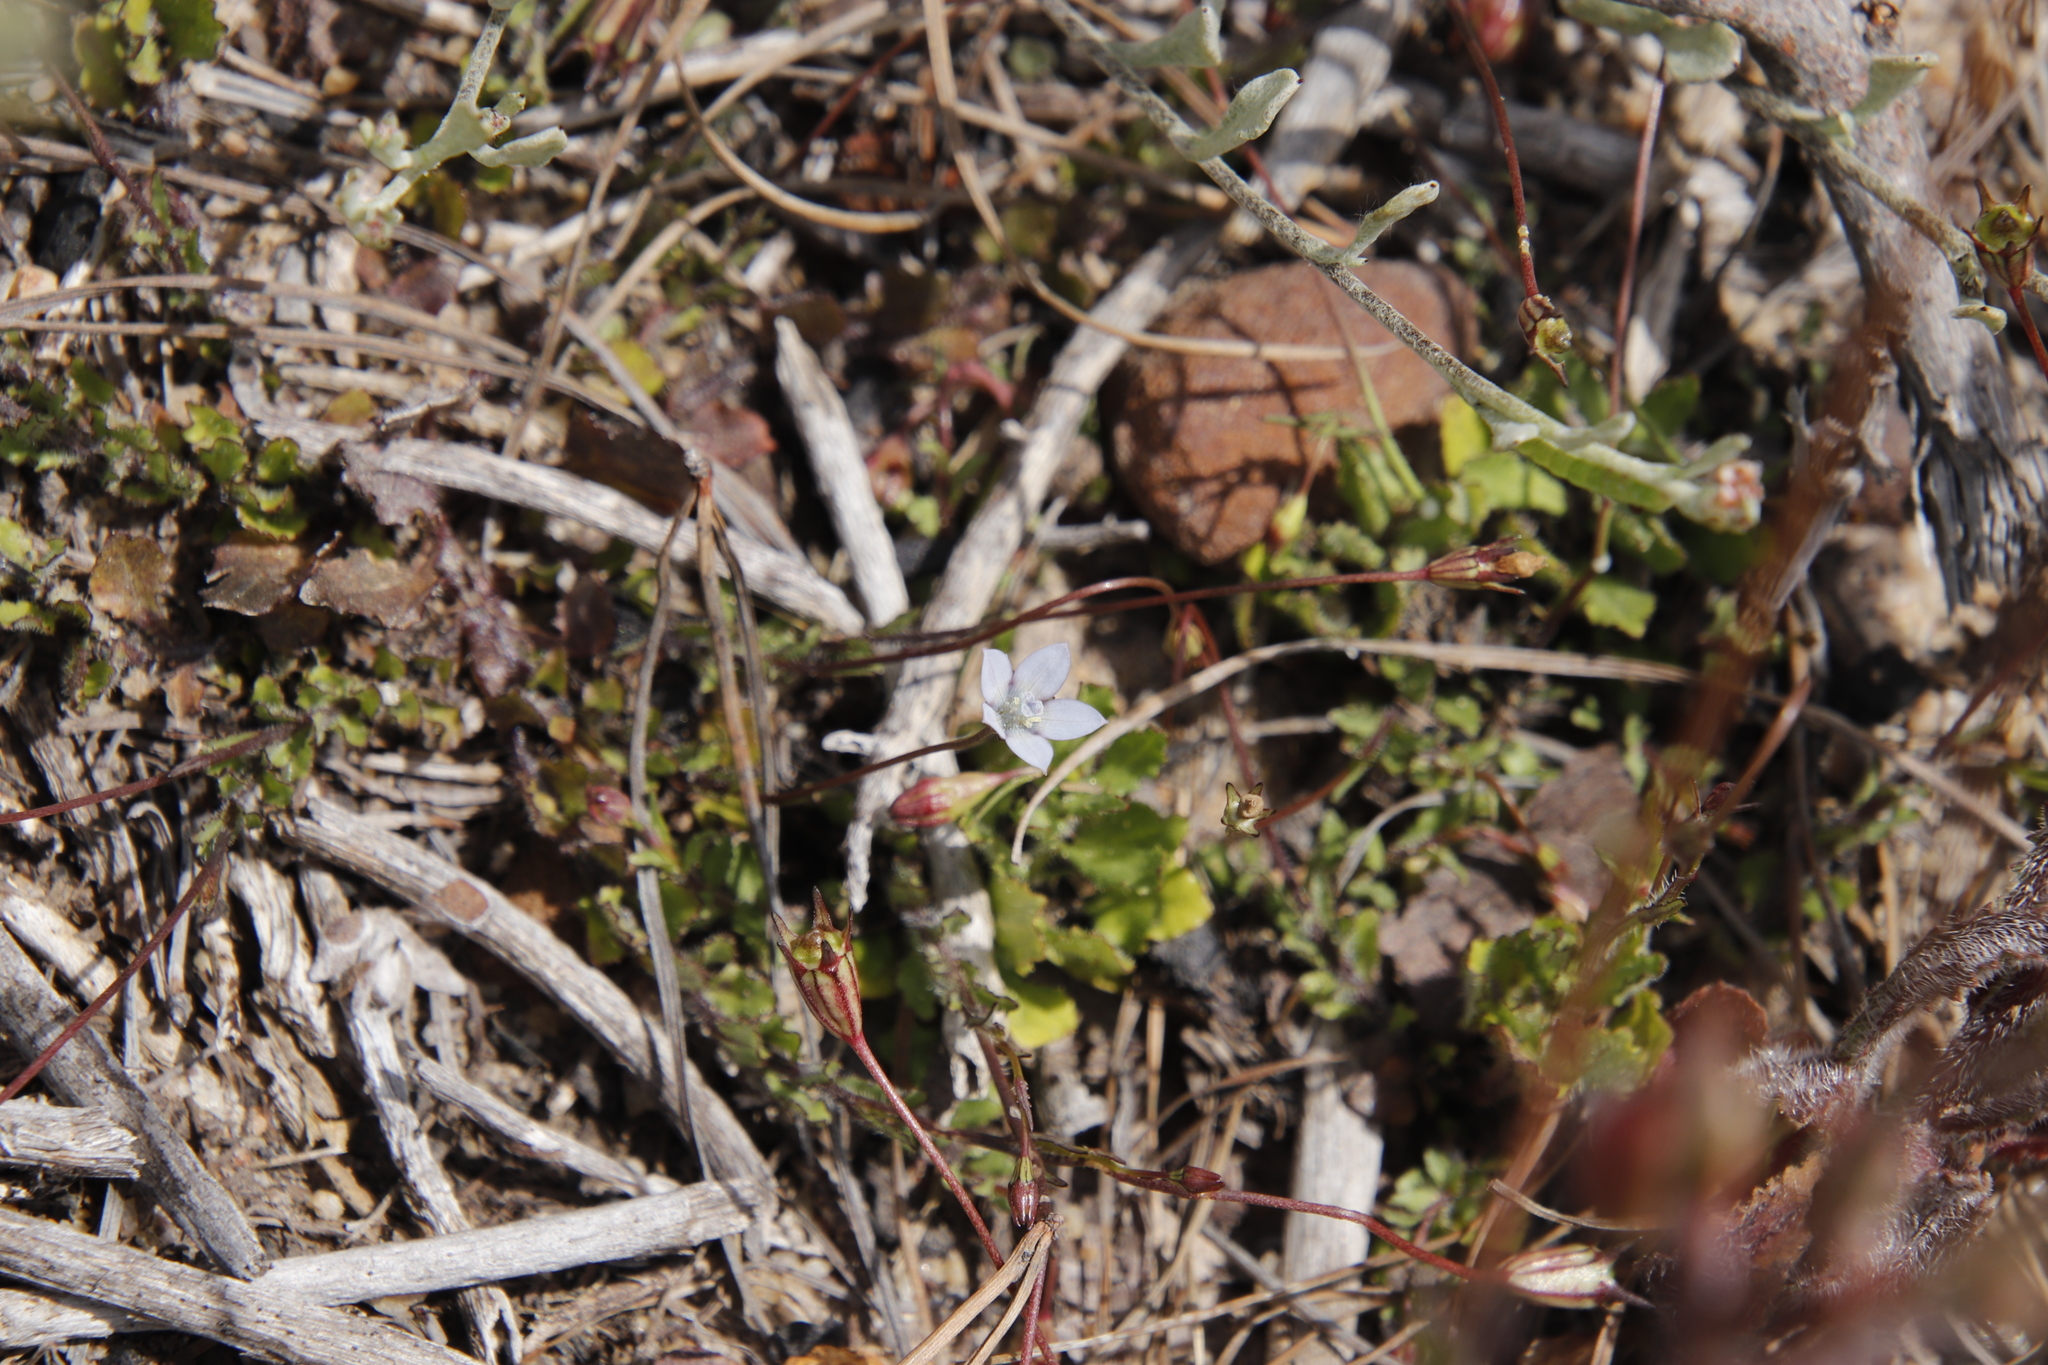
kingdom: Plantae
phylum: Tracheophyta
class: Magnoliopsida
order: Asterales
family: Campanulaceae
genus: Wahlenbergia
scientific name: Wahlenbergia cernua
